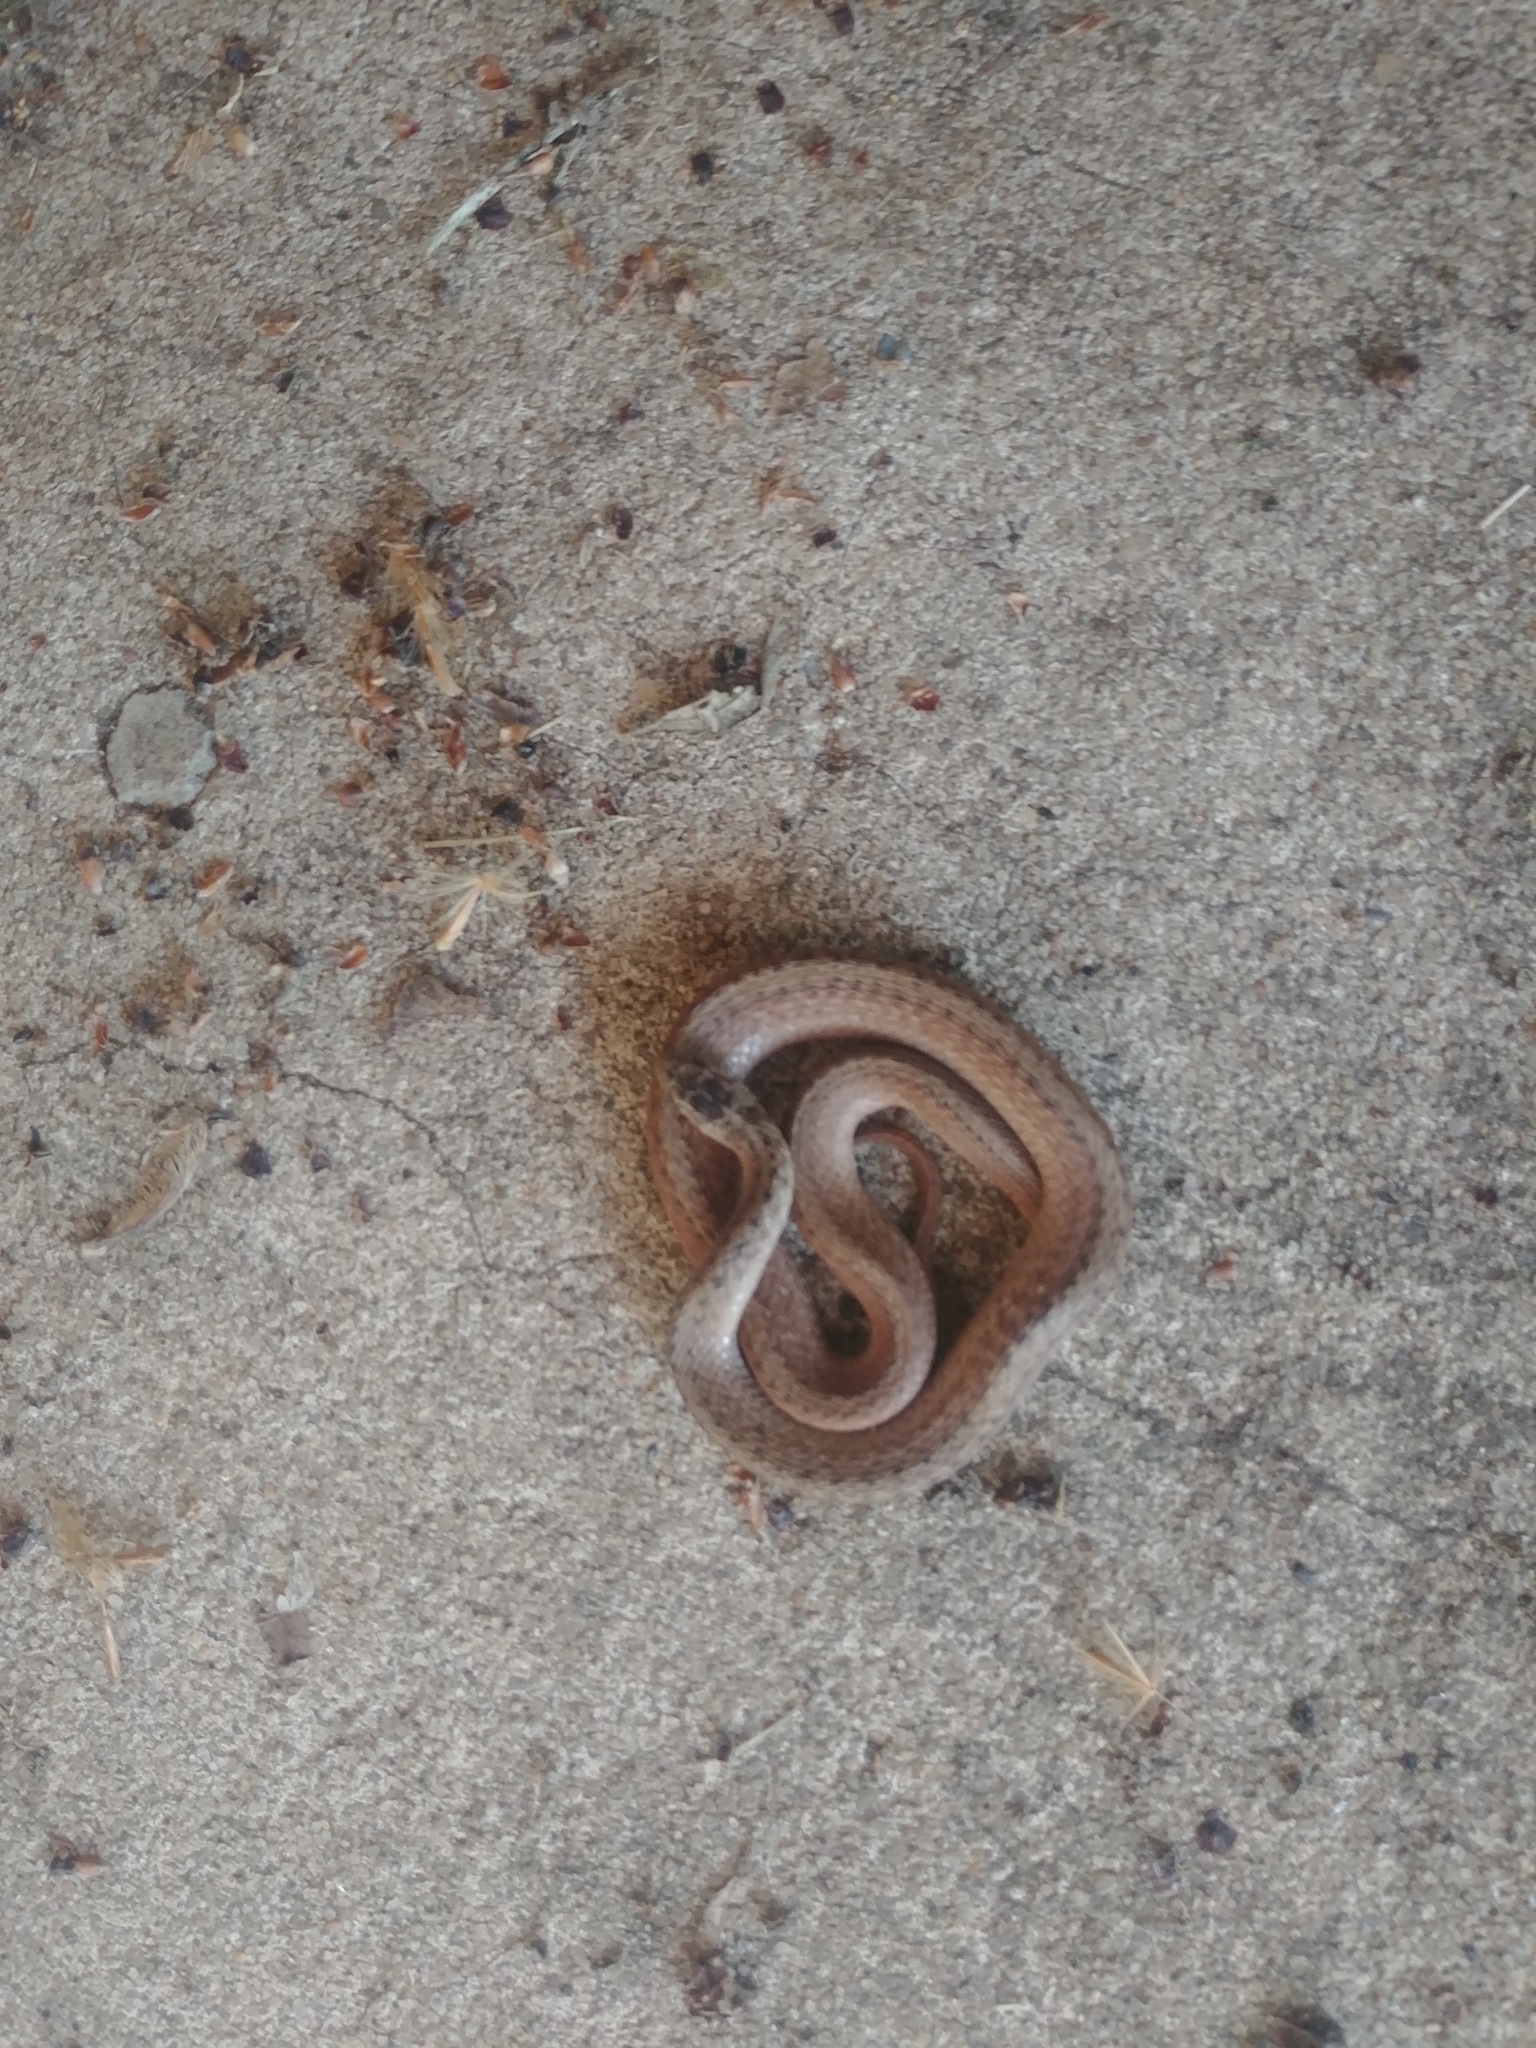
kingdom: Animalia
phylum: Chordata
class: Squamata
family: Colubridae
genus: Storeria
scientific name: Storeria dekayi
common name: (dekay’s) brown snake
